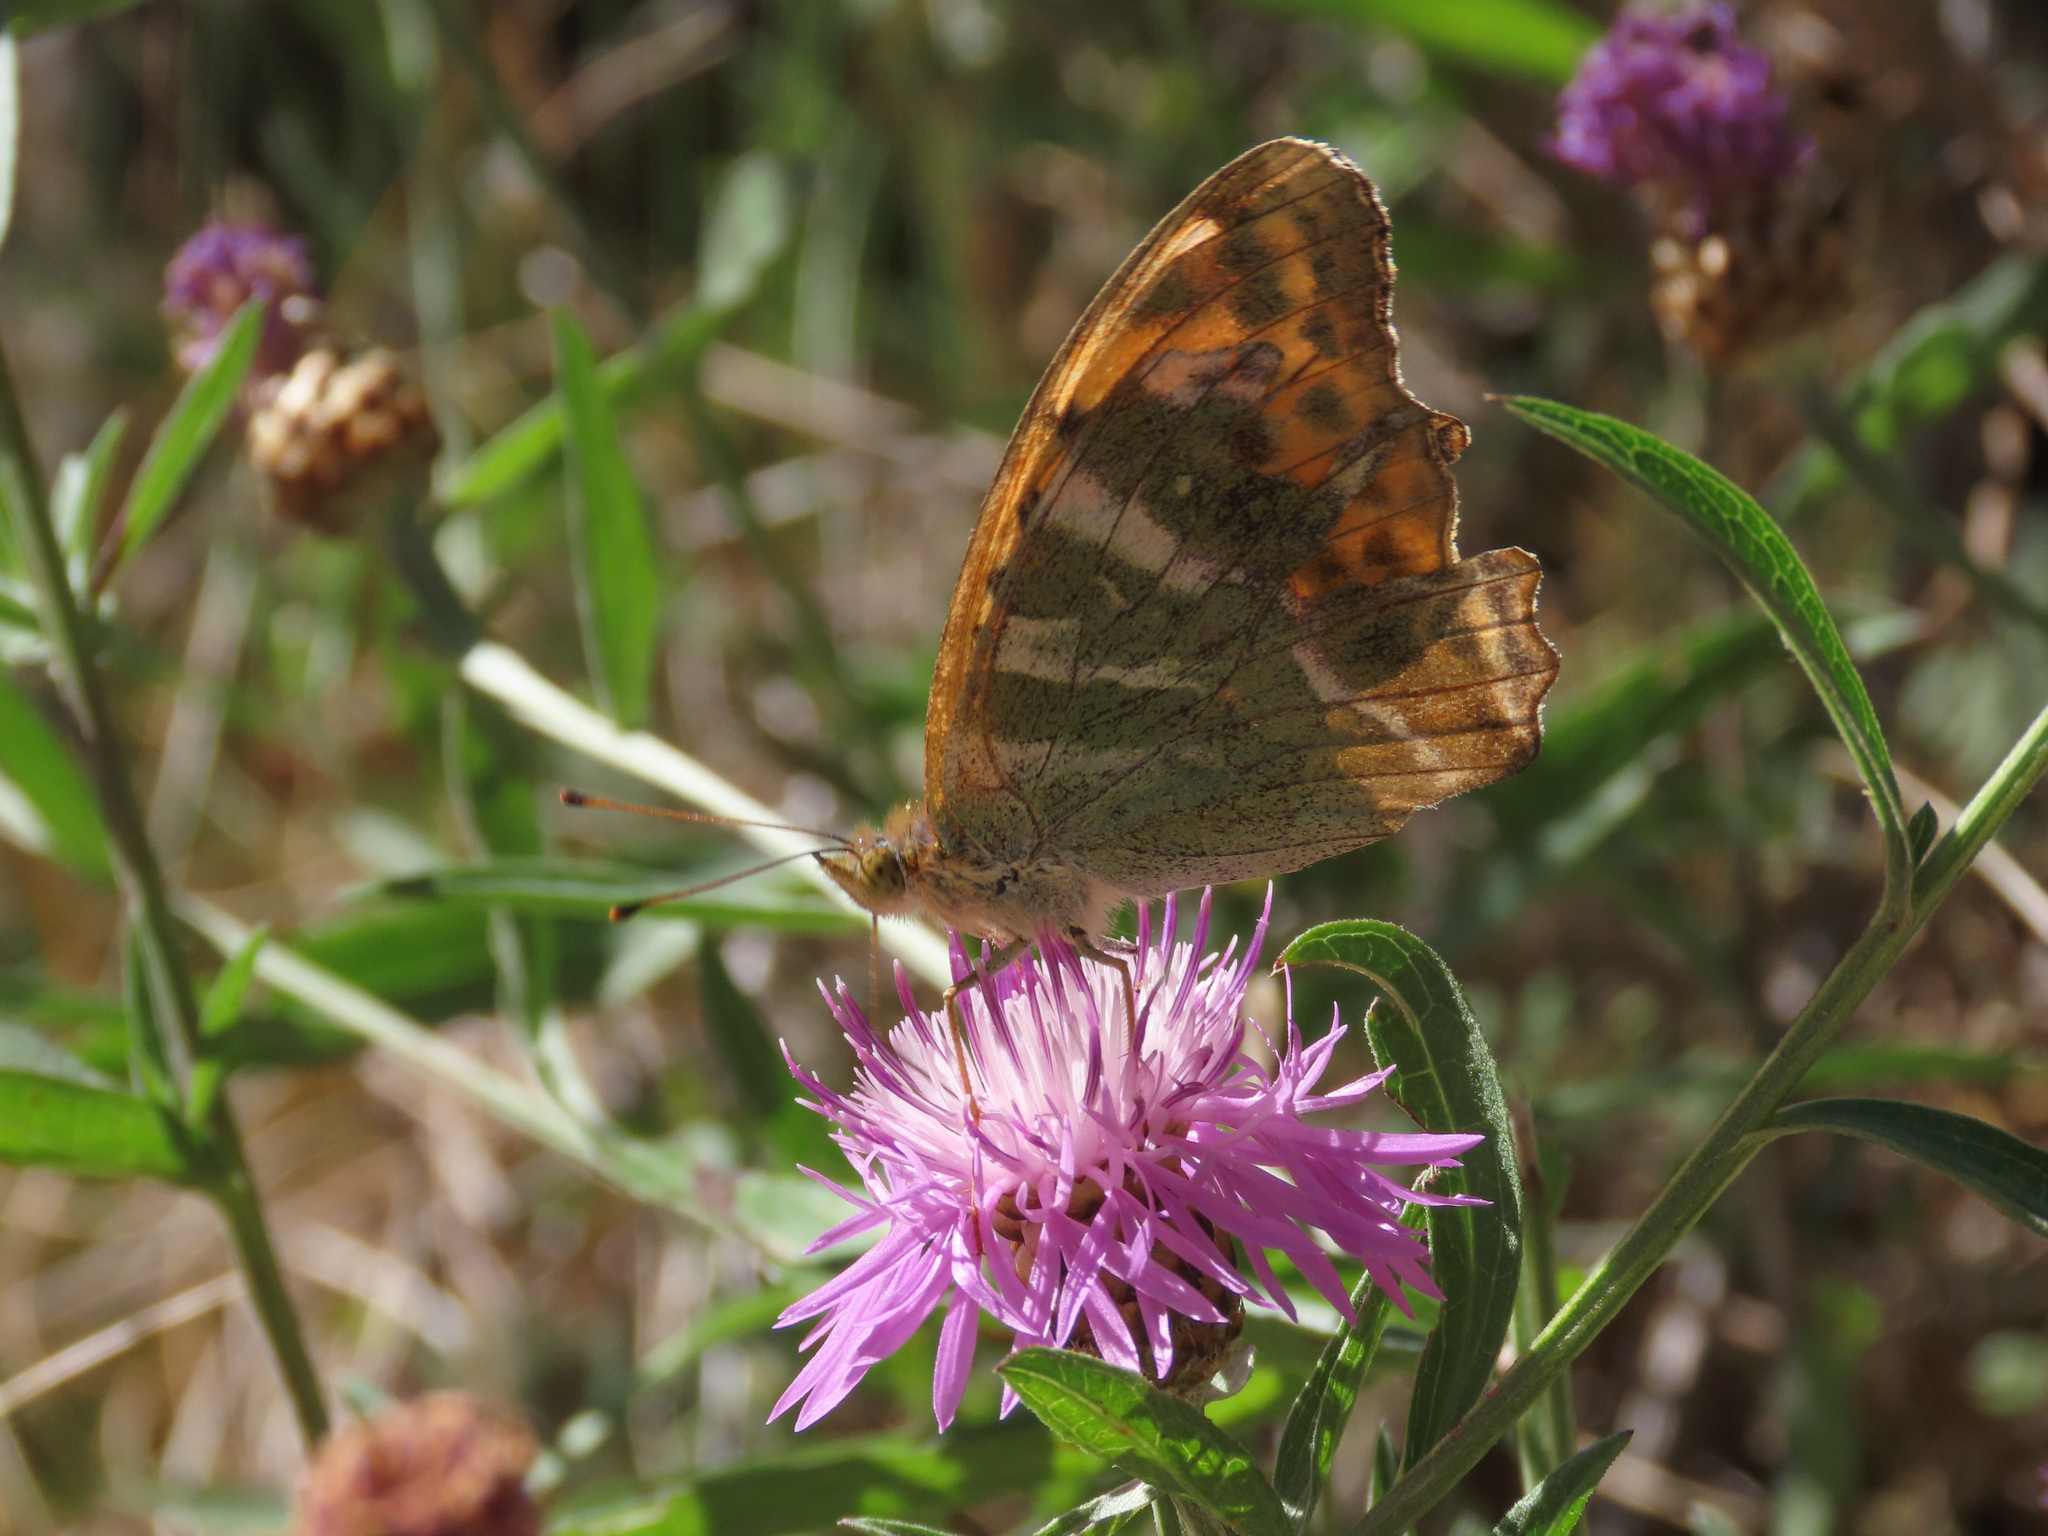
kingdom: Animalia
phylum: Arthropoda
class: Insecta
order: Lepidoptera
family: Nymphalidae
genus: Argynnis
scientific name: Argynnis paphia
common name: Silver-washed fritillary
